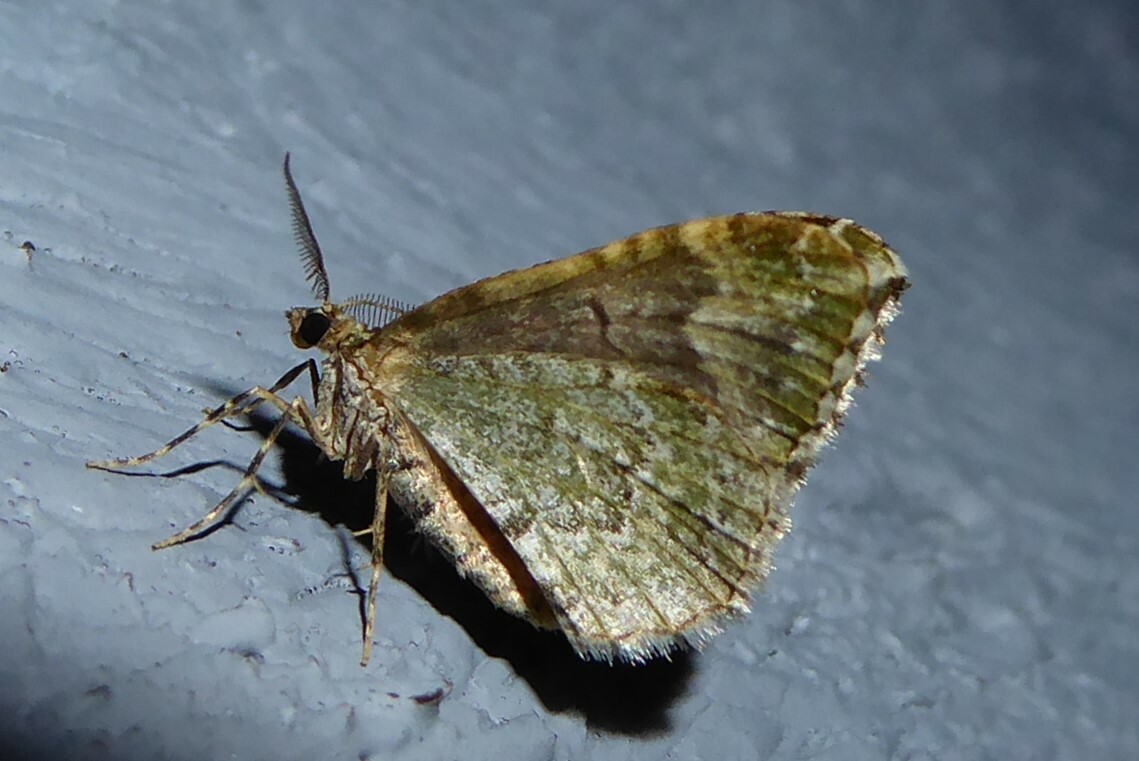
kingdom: Animalia
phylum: Arthropoda
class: Insecta
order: Lepidoptera
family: Geometridae
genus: Asaphodes
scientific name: Asaphodes beata
